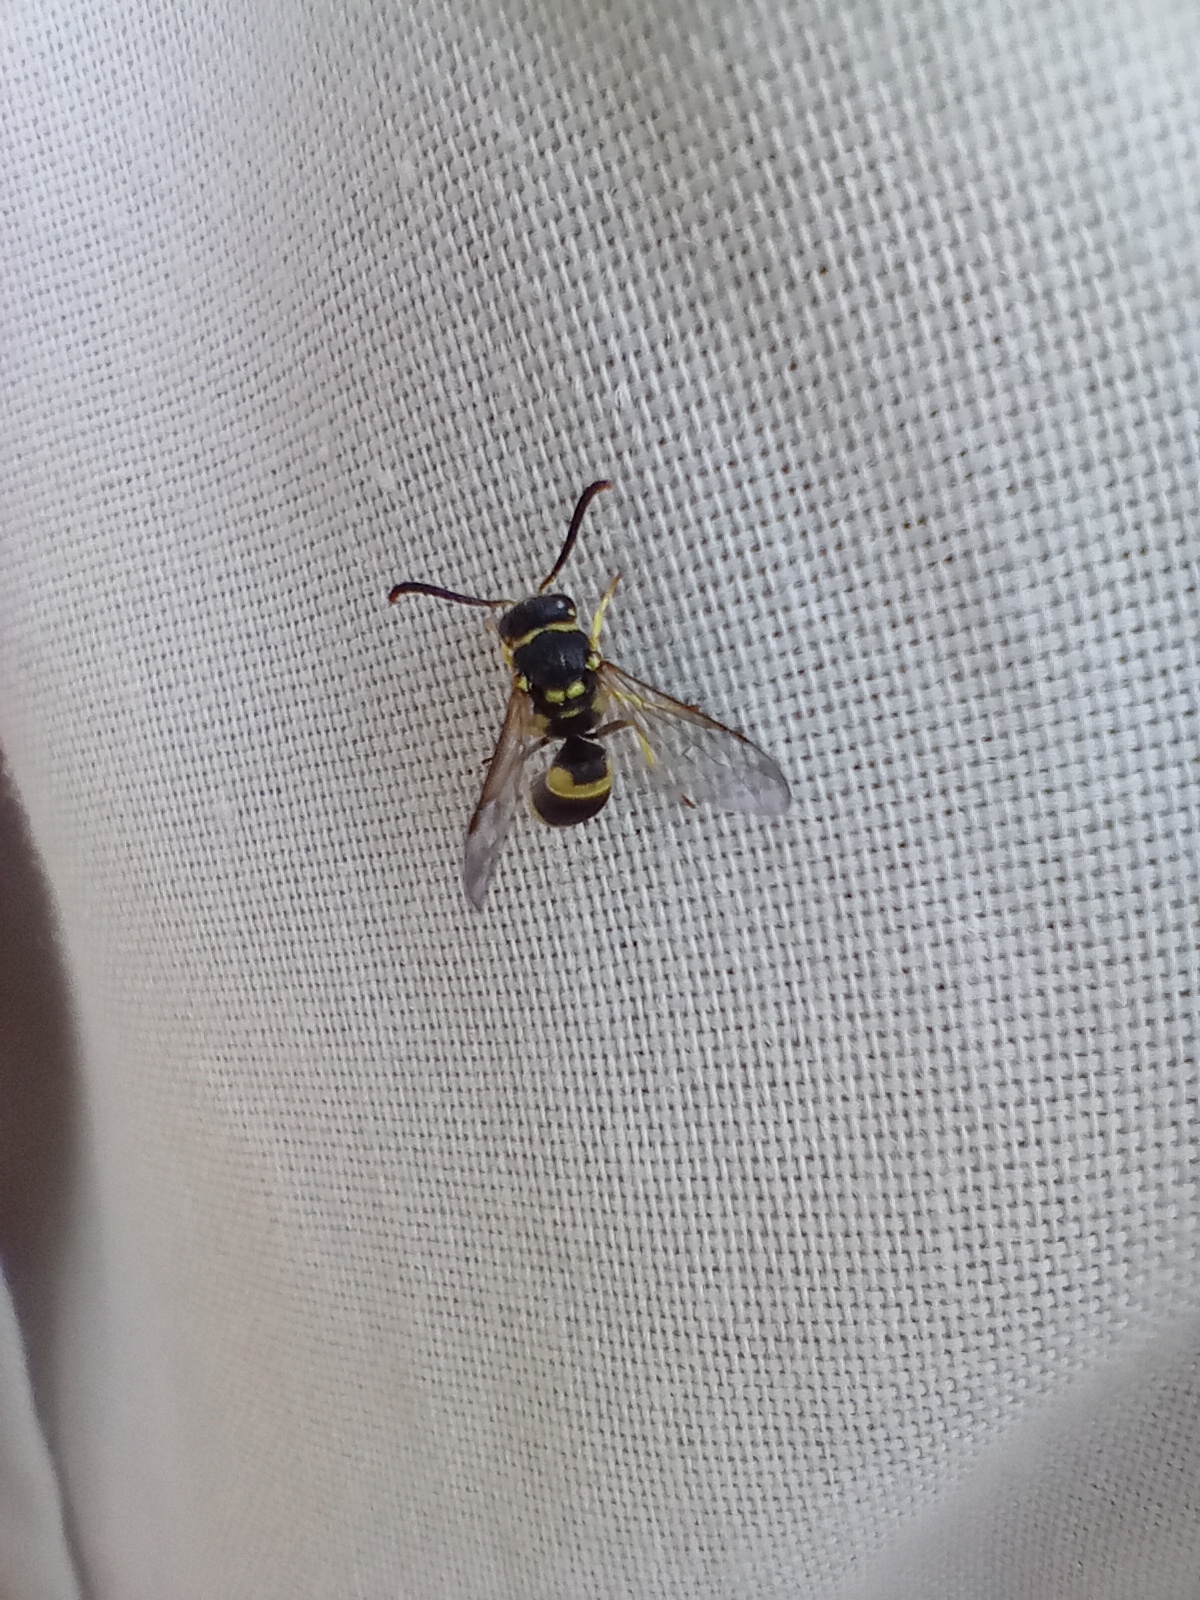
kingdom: Animalia
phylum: Arthropoda
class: Insecta
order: Hymenoptera
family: Vespidae
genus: Ancistrocerus
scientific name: Ancistrocerus auctus
